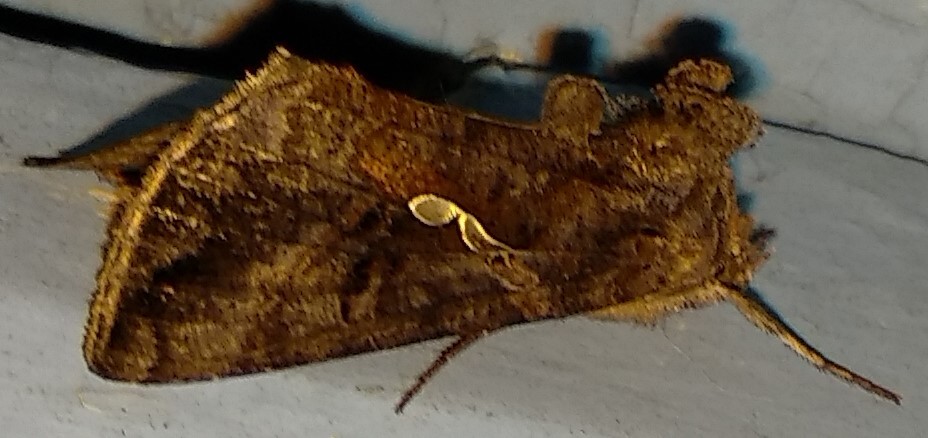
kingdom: Animalia
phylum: Arthropoda
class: Insecta
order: Lepidoptera
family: Noctuidae
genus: Autographa
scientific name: Autographa precationis
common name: Common looper moth
